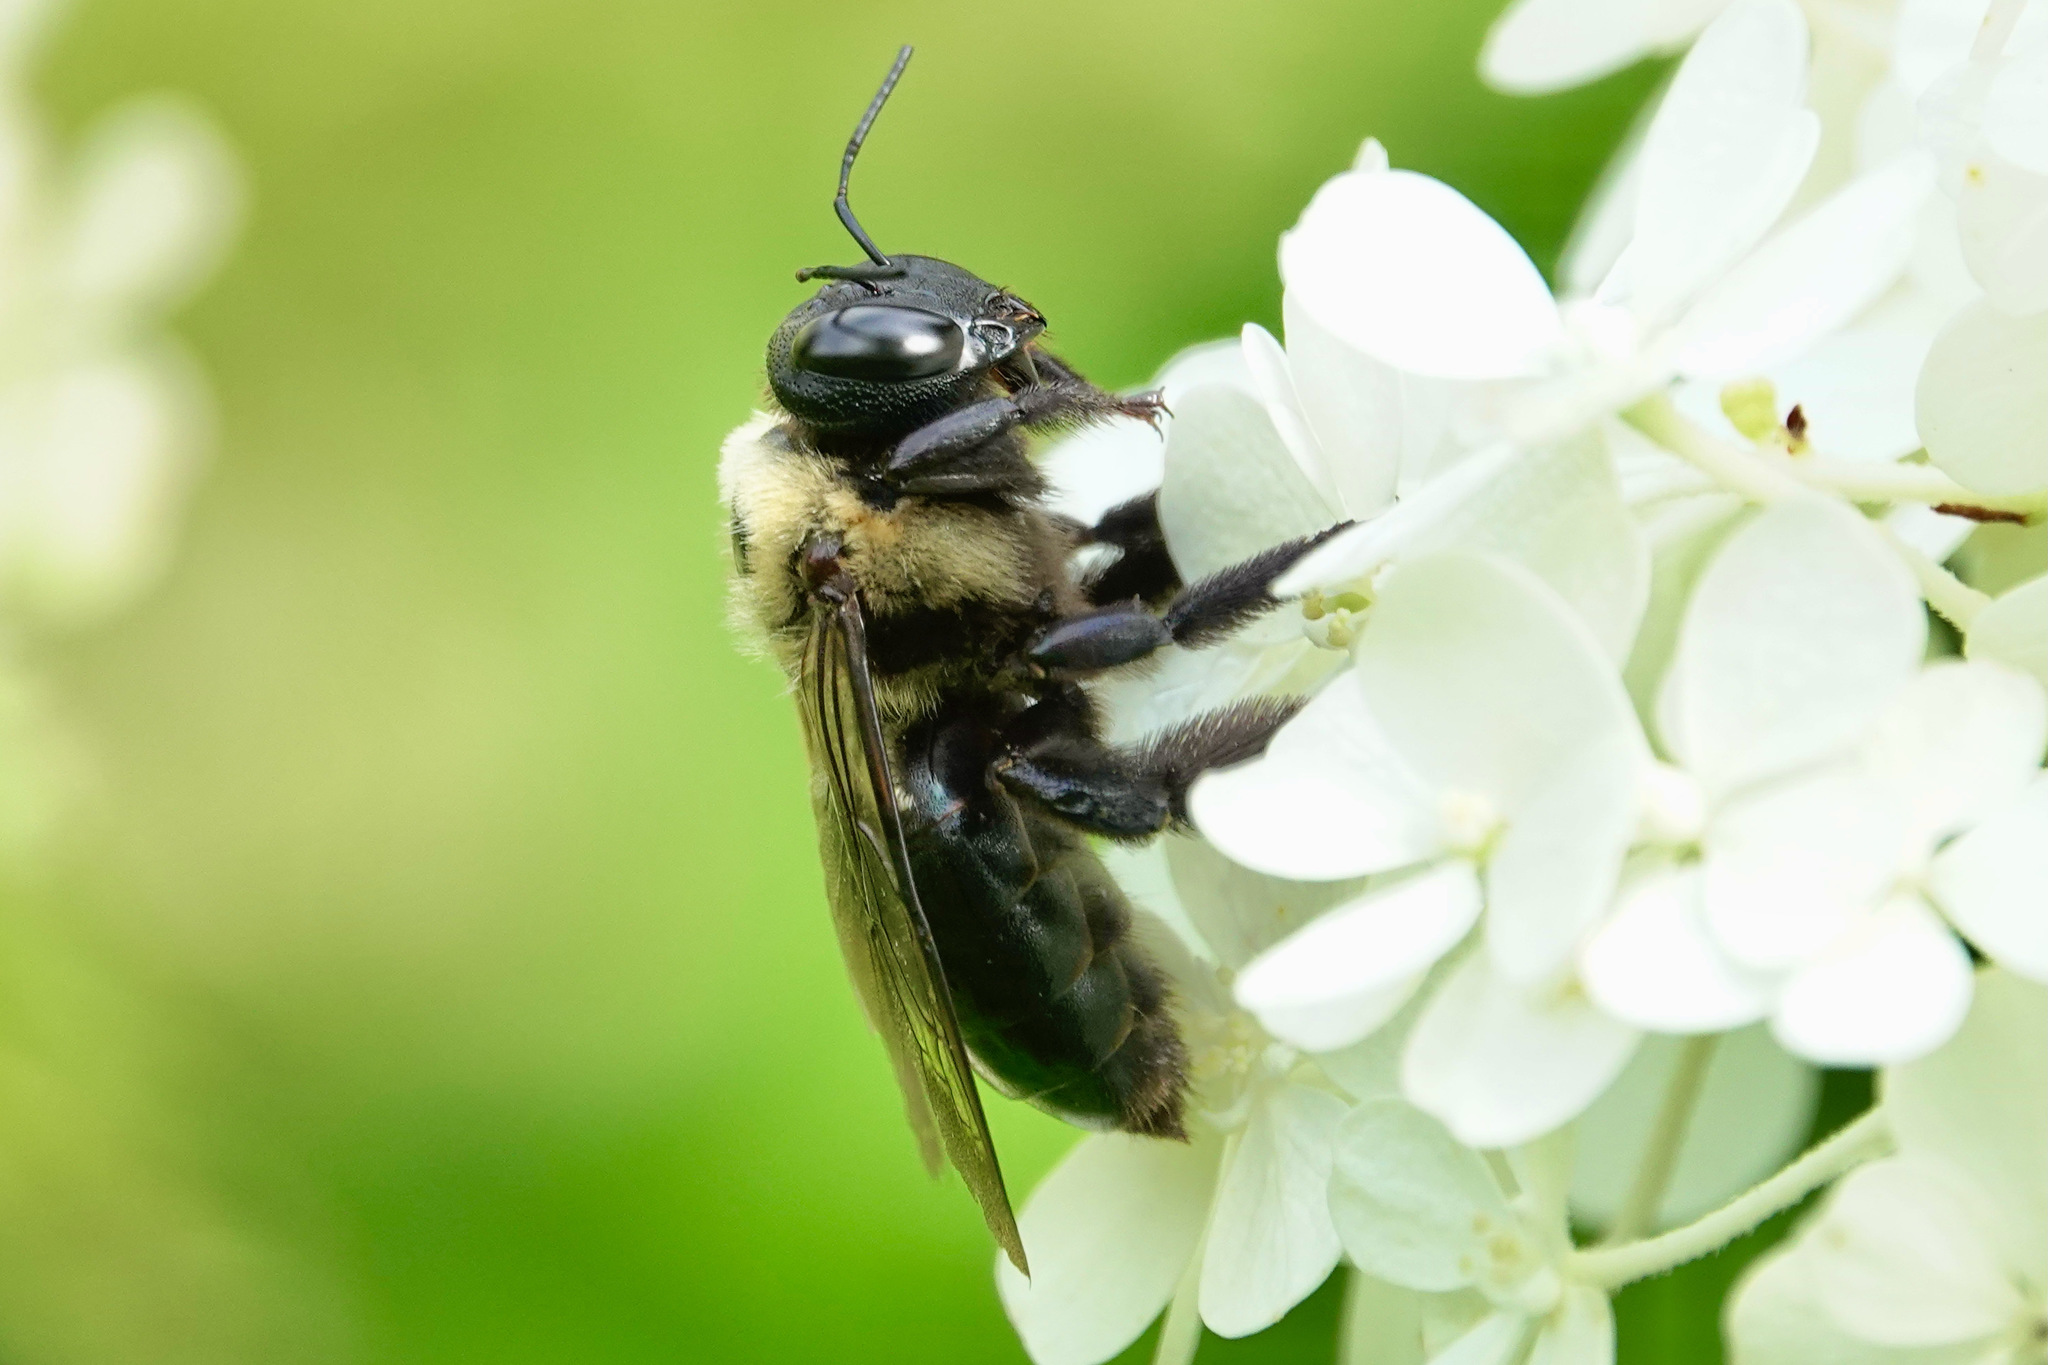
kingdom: Animalia
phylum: Arthropoda
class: Insecta
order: Hymenoptera
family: Apidae
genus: Xylocopa
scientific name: Xylocopa virginica
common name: Carpenter bee
